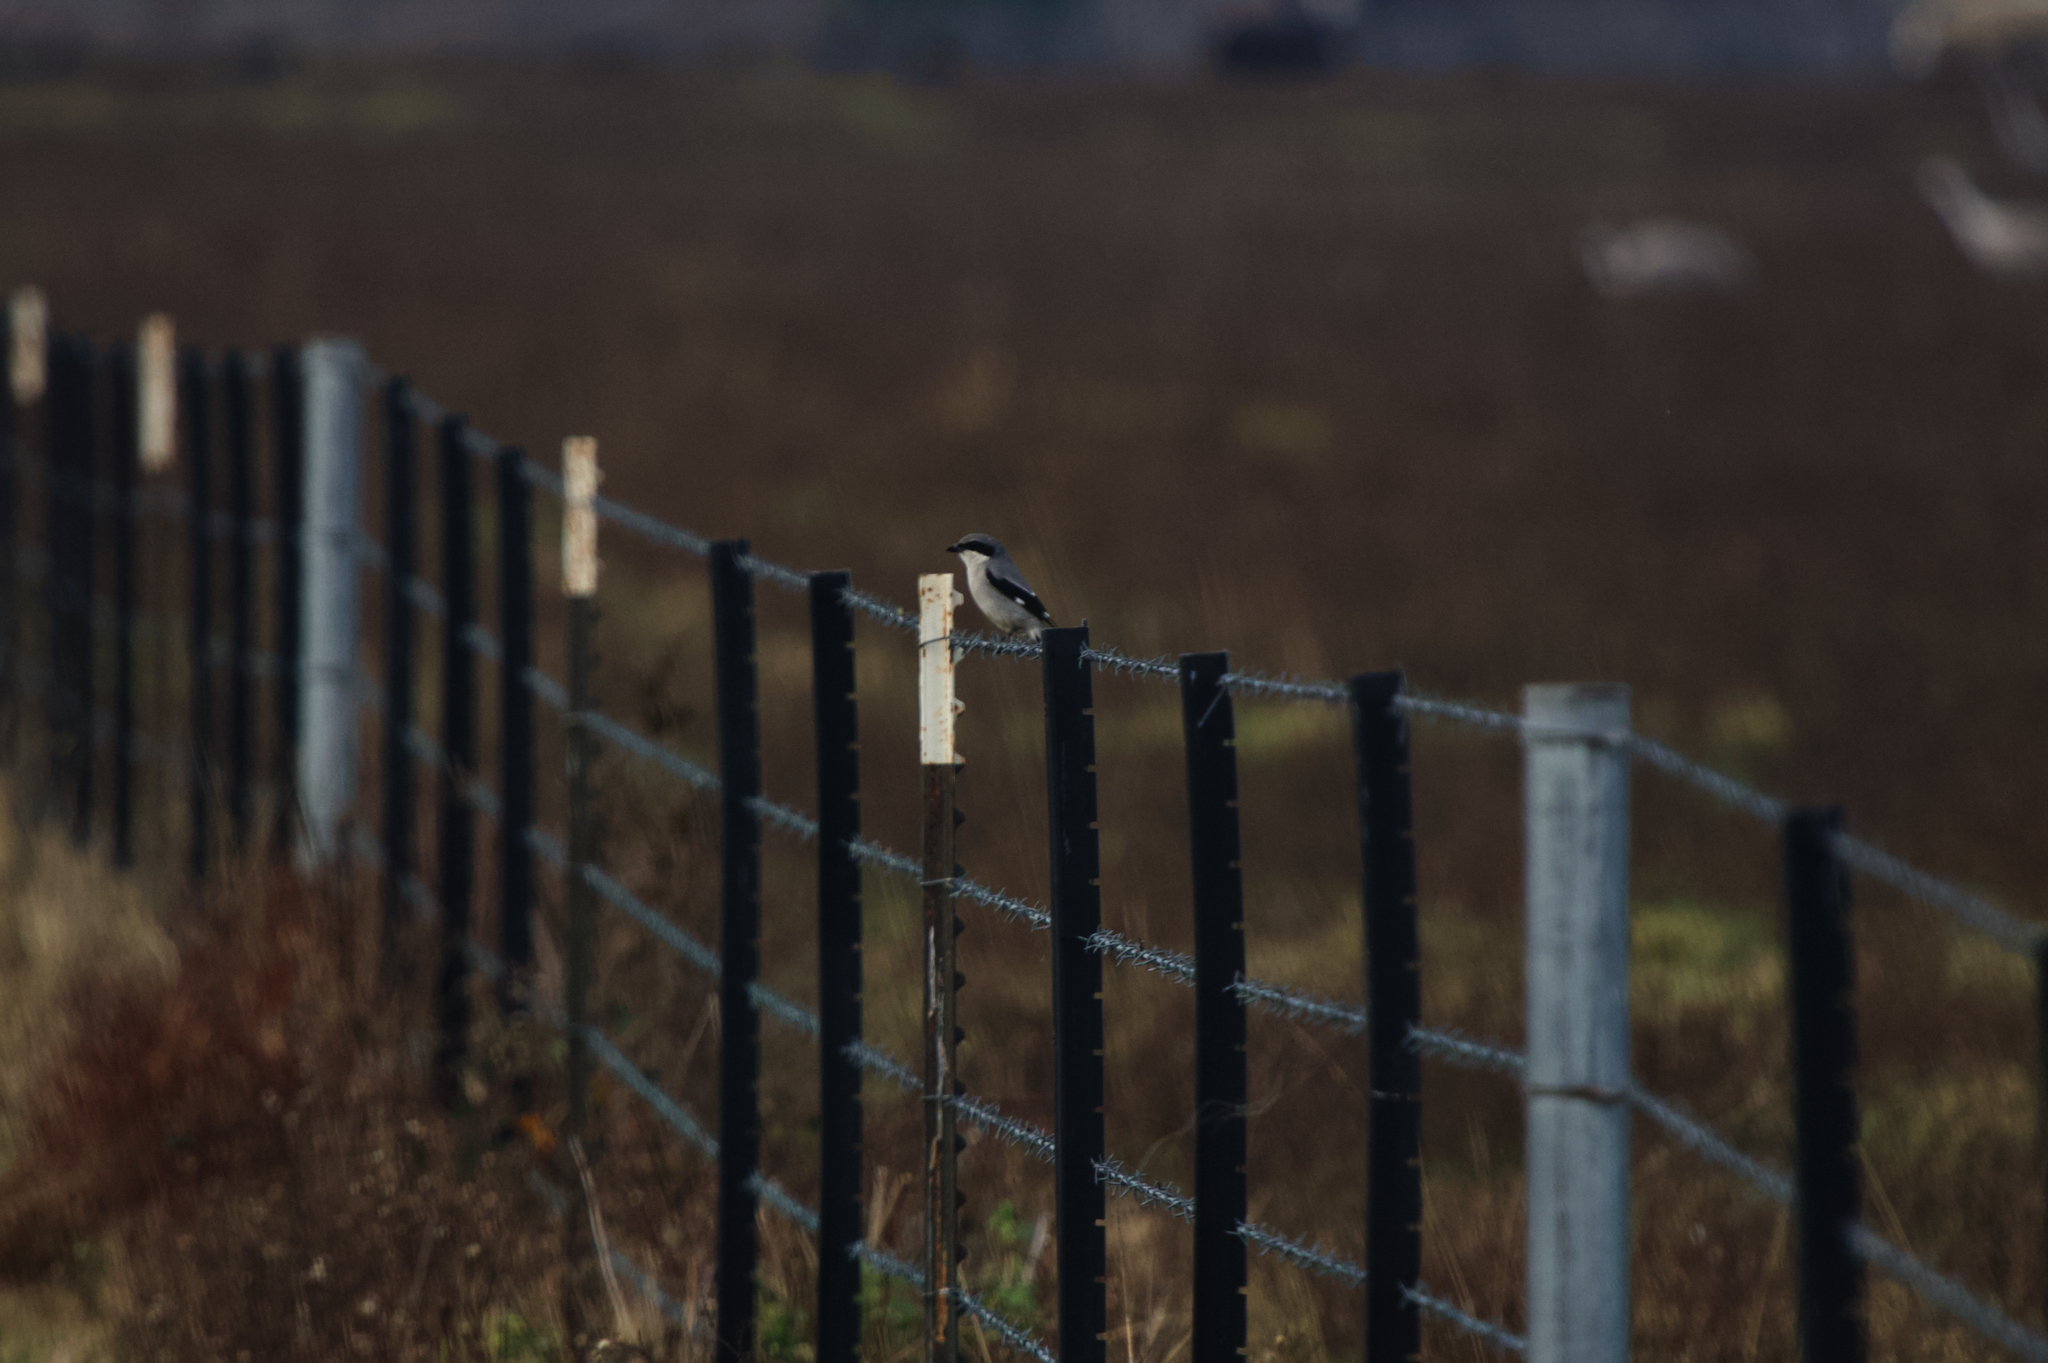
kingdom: Animalia
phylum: Chordata
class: Aves
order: Passeriformes
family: Laniidae
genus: Lanius
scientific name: Lanius ludovicianus
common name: Loggerhead shrike
